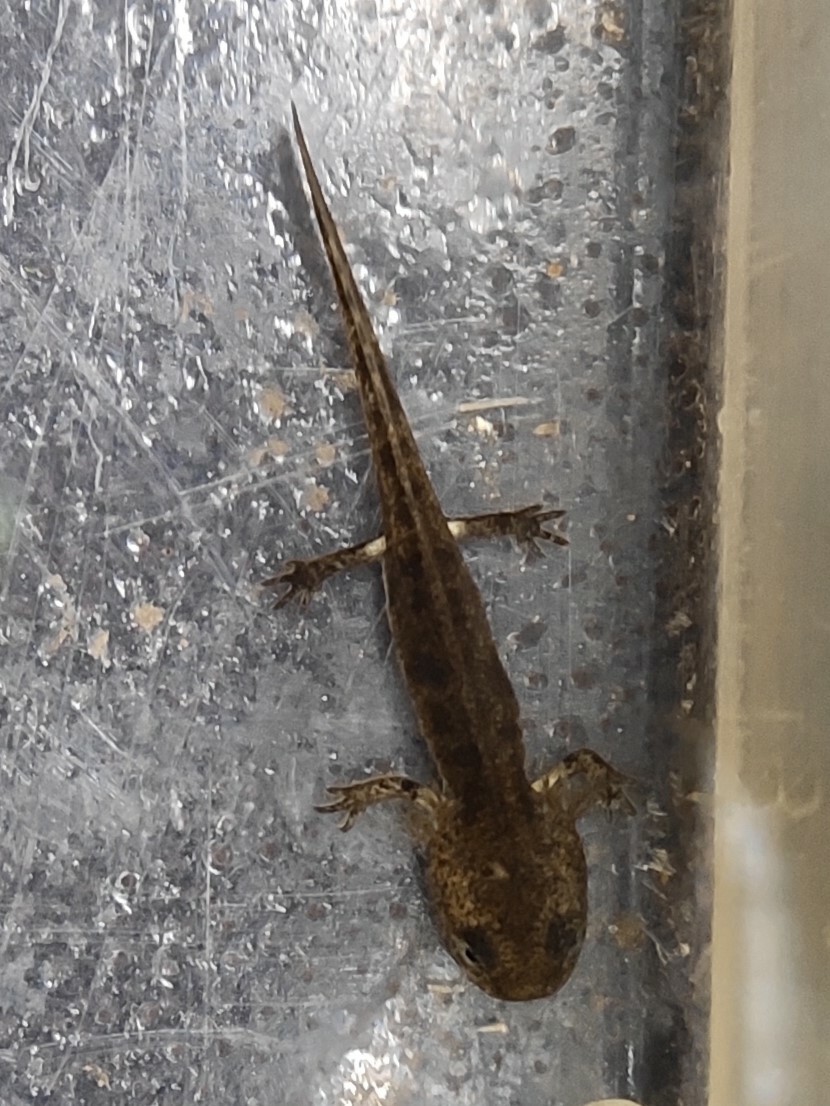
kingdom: Animalia
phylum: Chordata
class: Amphibia
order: Caudata
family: Salamandridae
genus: Salamandra
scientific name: Salamandra salamandra
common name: Fire salamander
